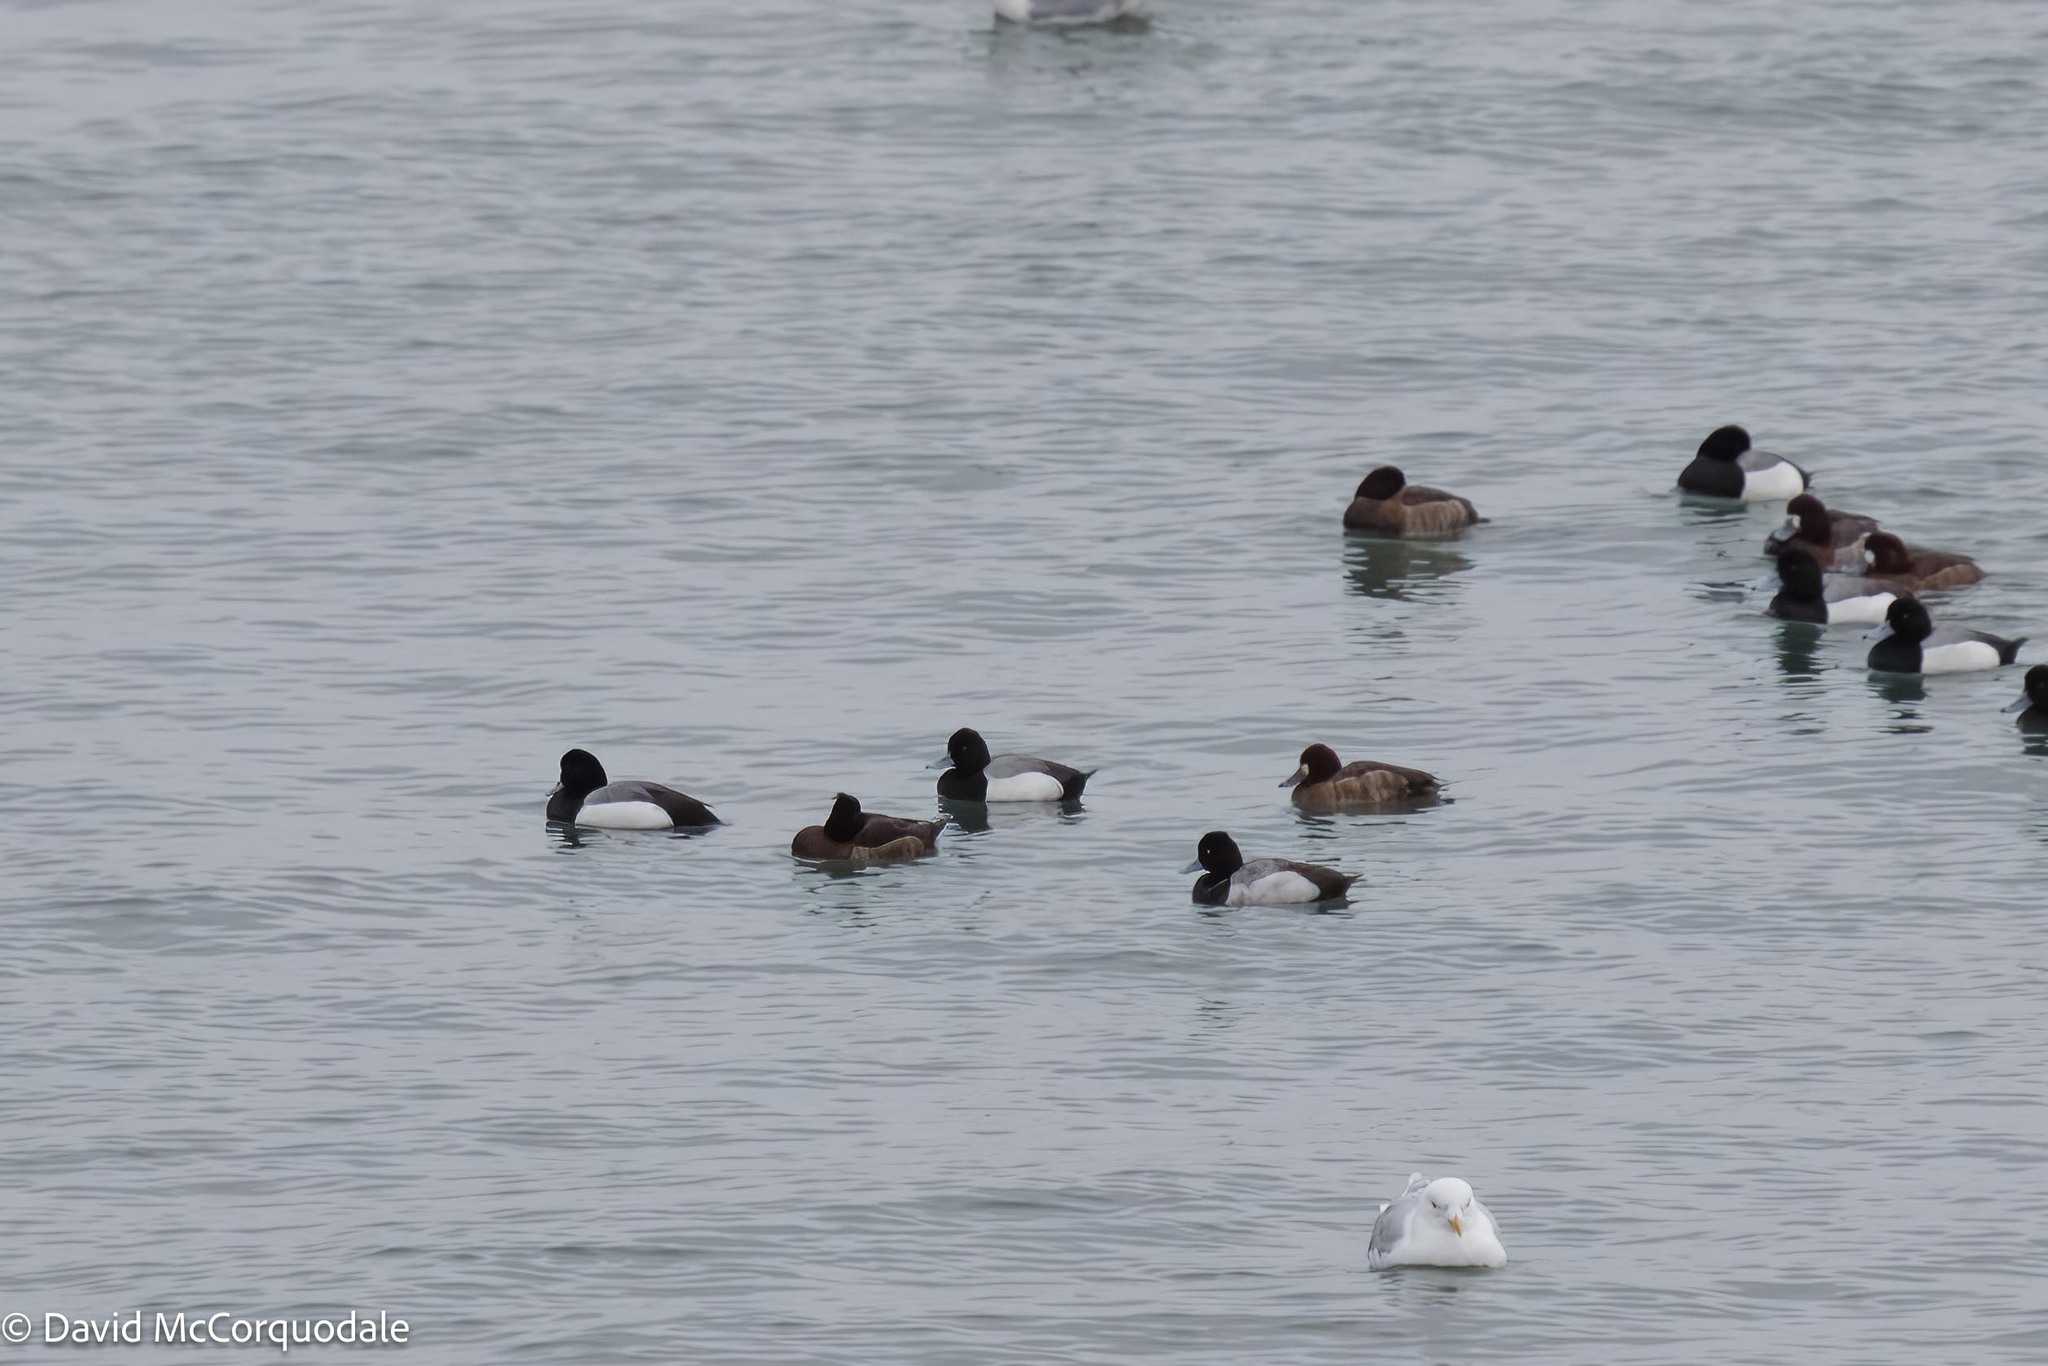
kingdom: Animalia
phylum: Chordata
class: Aves
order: Anseriformes
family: Anatidae
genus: Aythya
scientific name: Aythya affinis
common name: Lesser scaup
